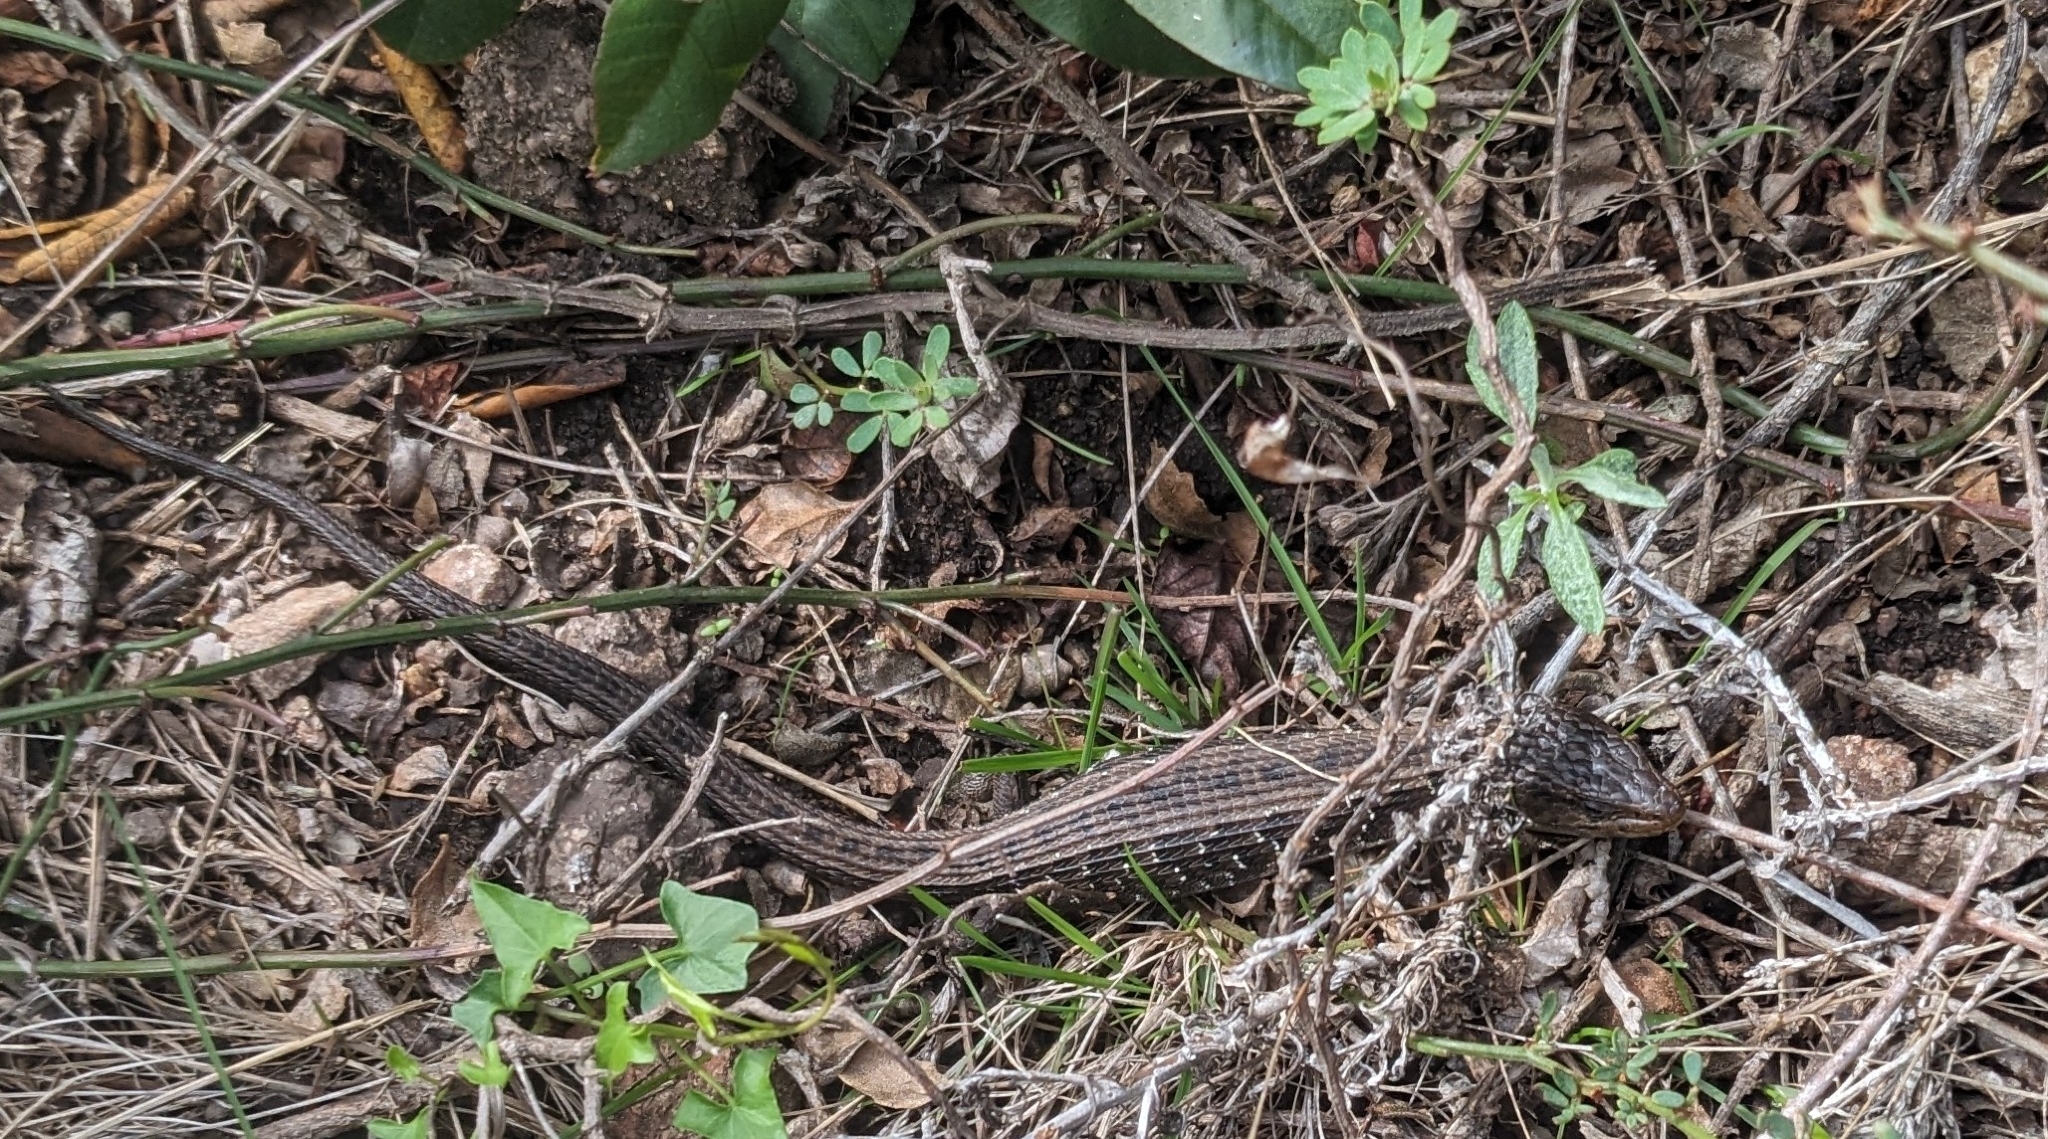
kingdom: Animalia
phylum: Chordata
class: Squamata
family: Anguidae
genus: Elgaria
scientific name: Elgaria coerulea
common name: Northern alligator lizard
